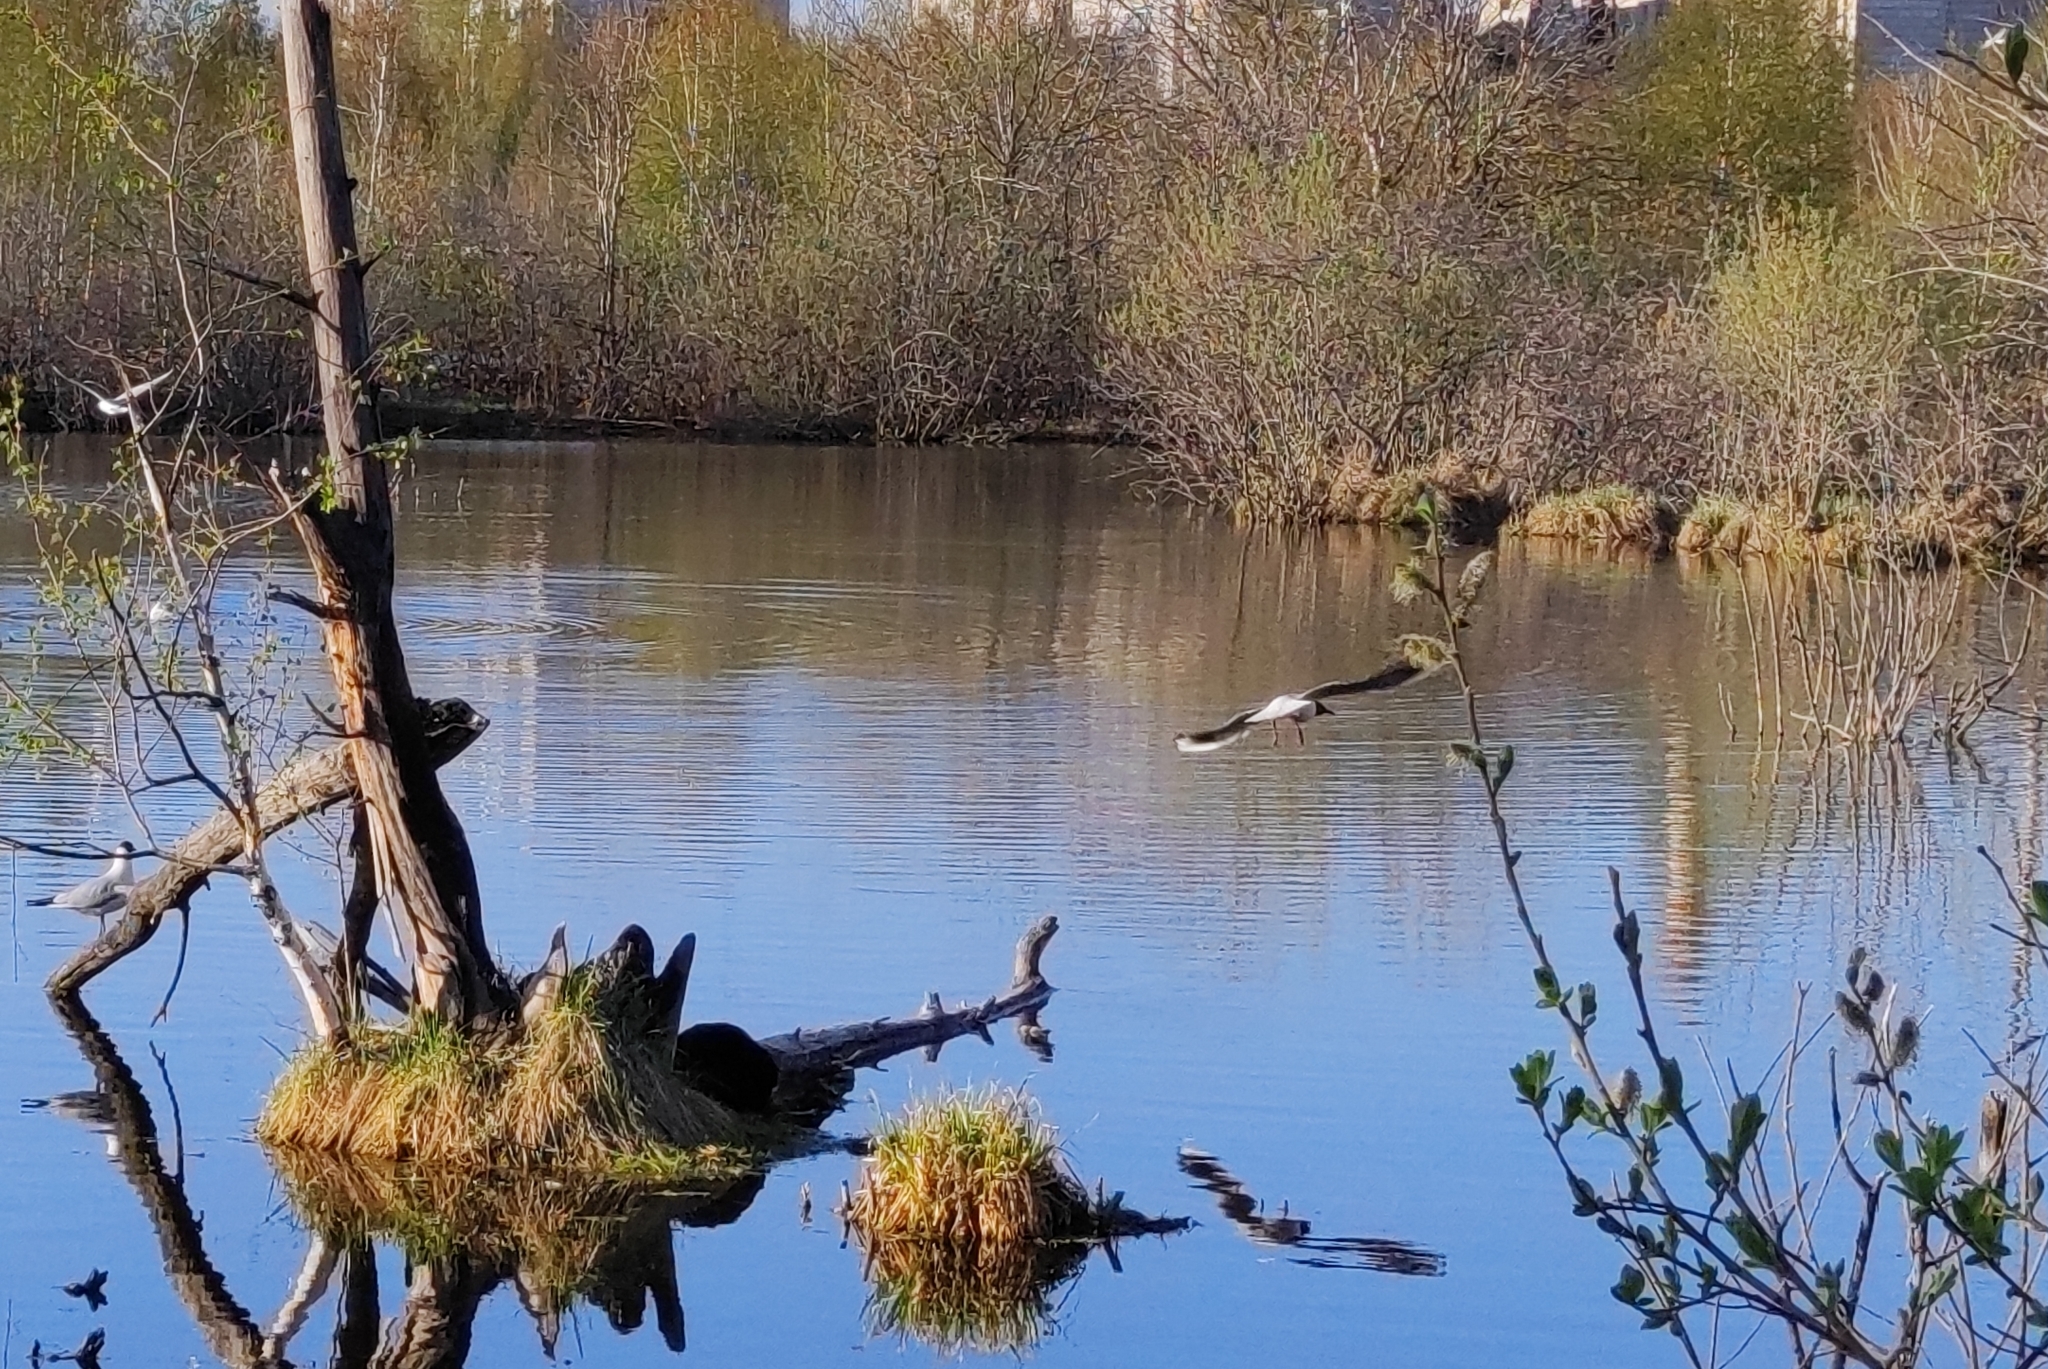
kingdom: Animalia
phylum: Chordata
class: Aves
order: Charadriiformes
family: Laridae
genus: Chroicocephalus
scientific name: Chroicocephalus ridibundus
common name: Black-headed gull
